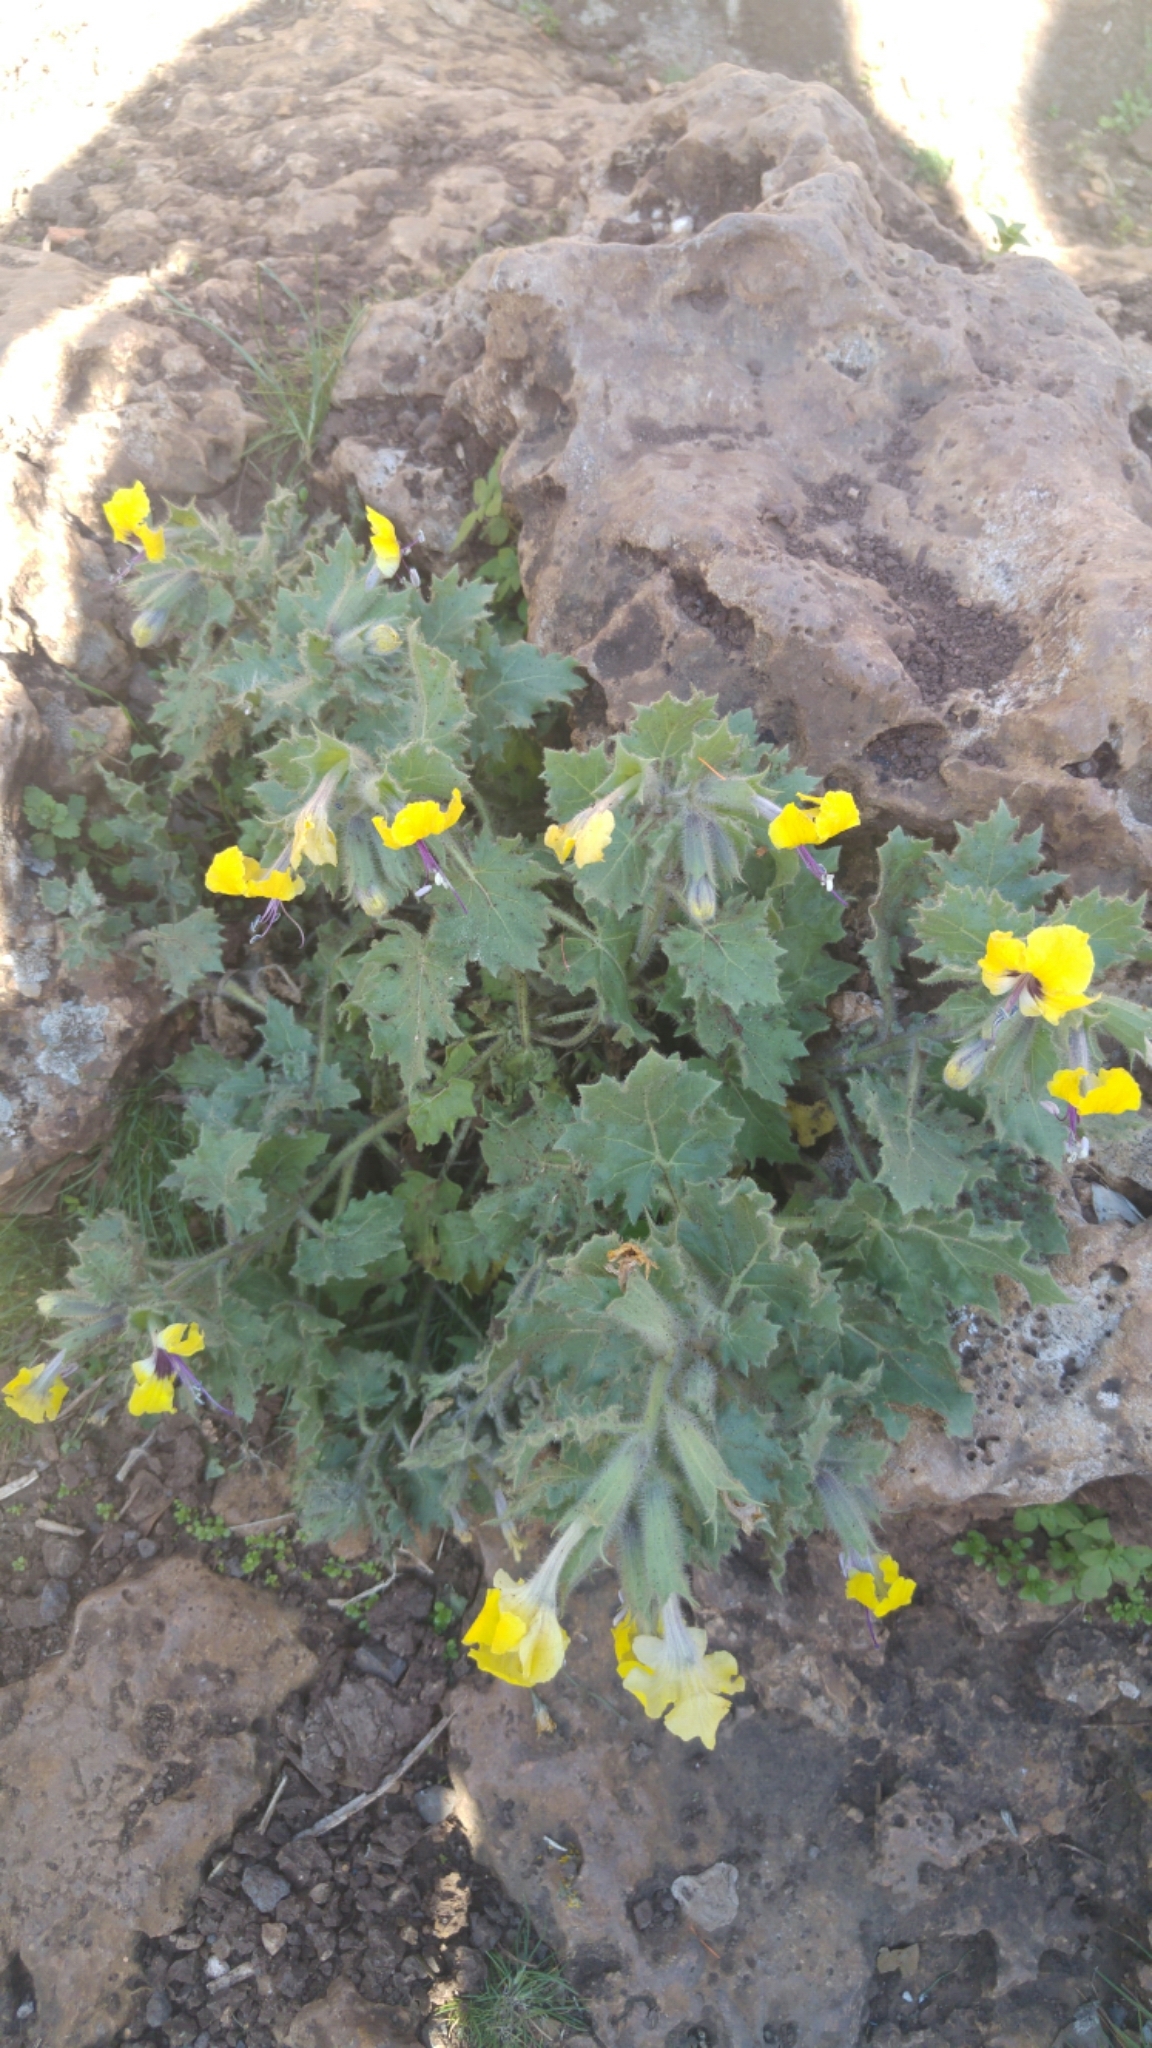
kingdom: Plantae
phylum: Tracheophyta
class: Magnoliopsida
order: Solanales
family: Solanaceae
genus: Hyoscyamus
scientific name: Hyoscyamus aureus
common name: Golden henbane
